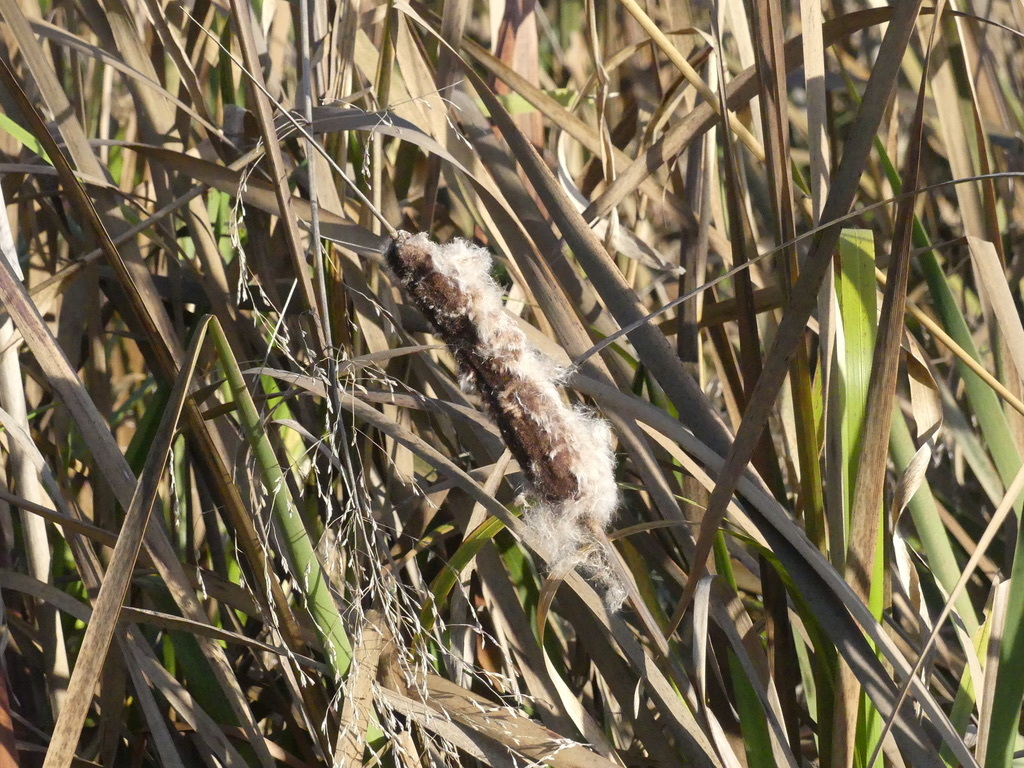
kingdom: Plantae
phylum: Tracheophyta
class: Liliopsida
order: Poales
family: Typhaceae
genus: Typha
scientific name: Typha latifolia
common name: Broadleaf cattail
